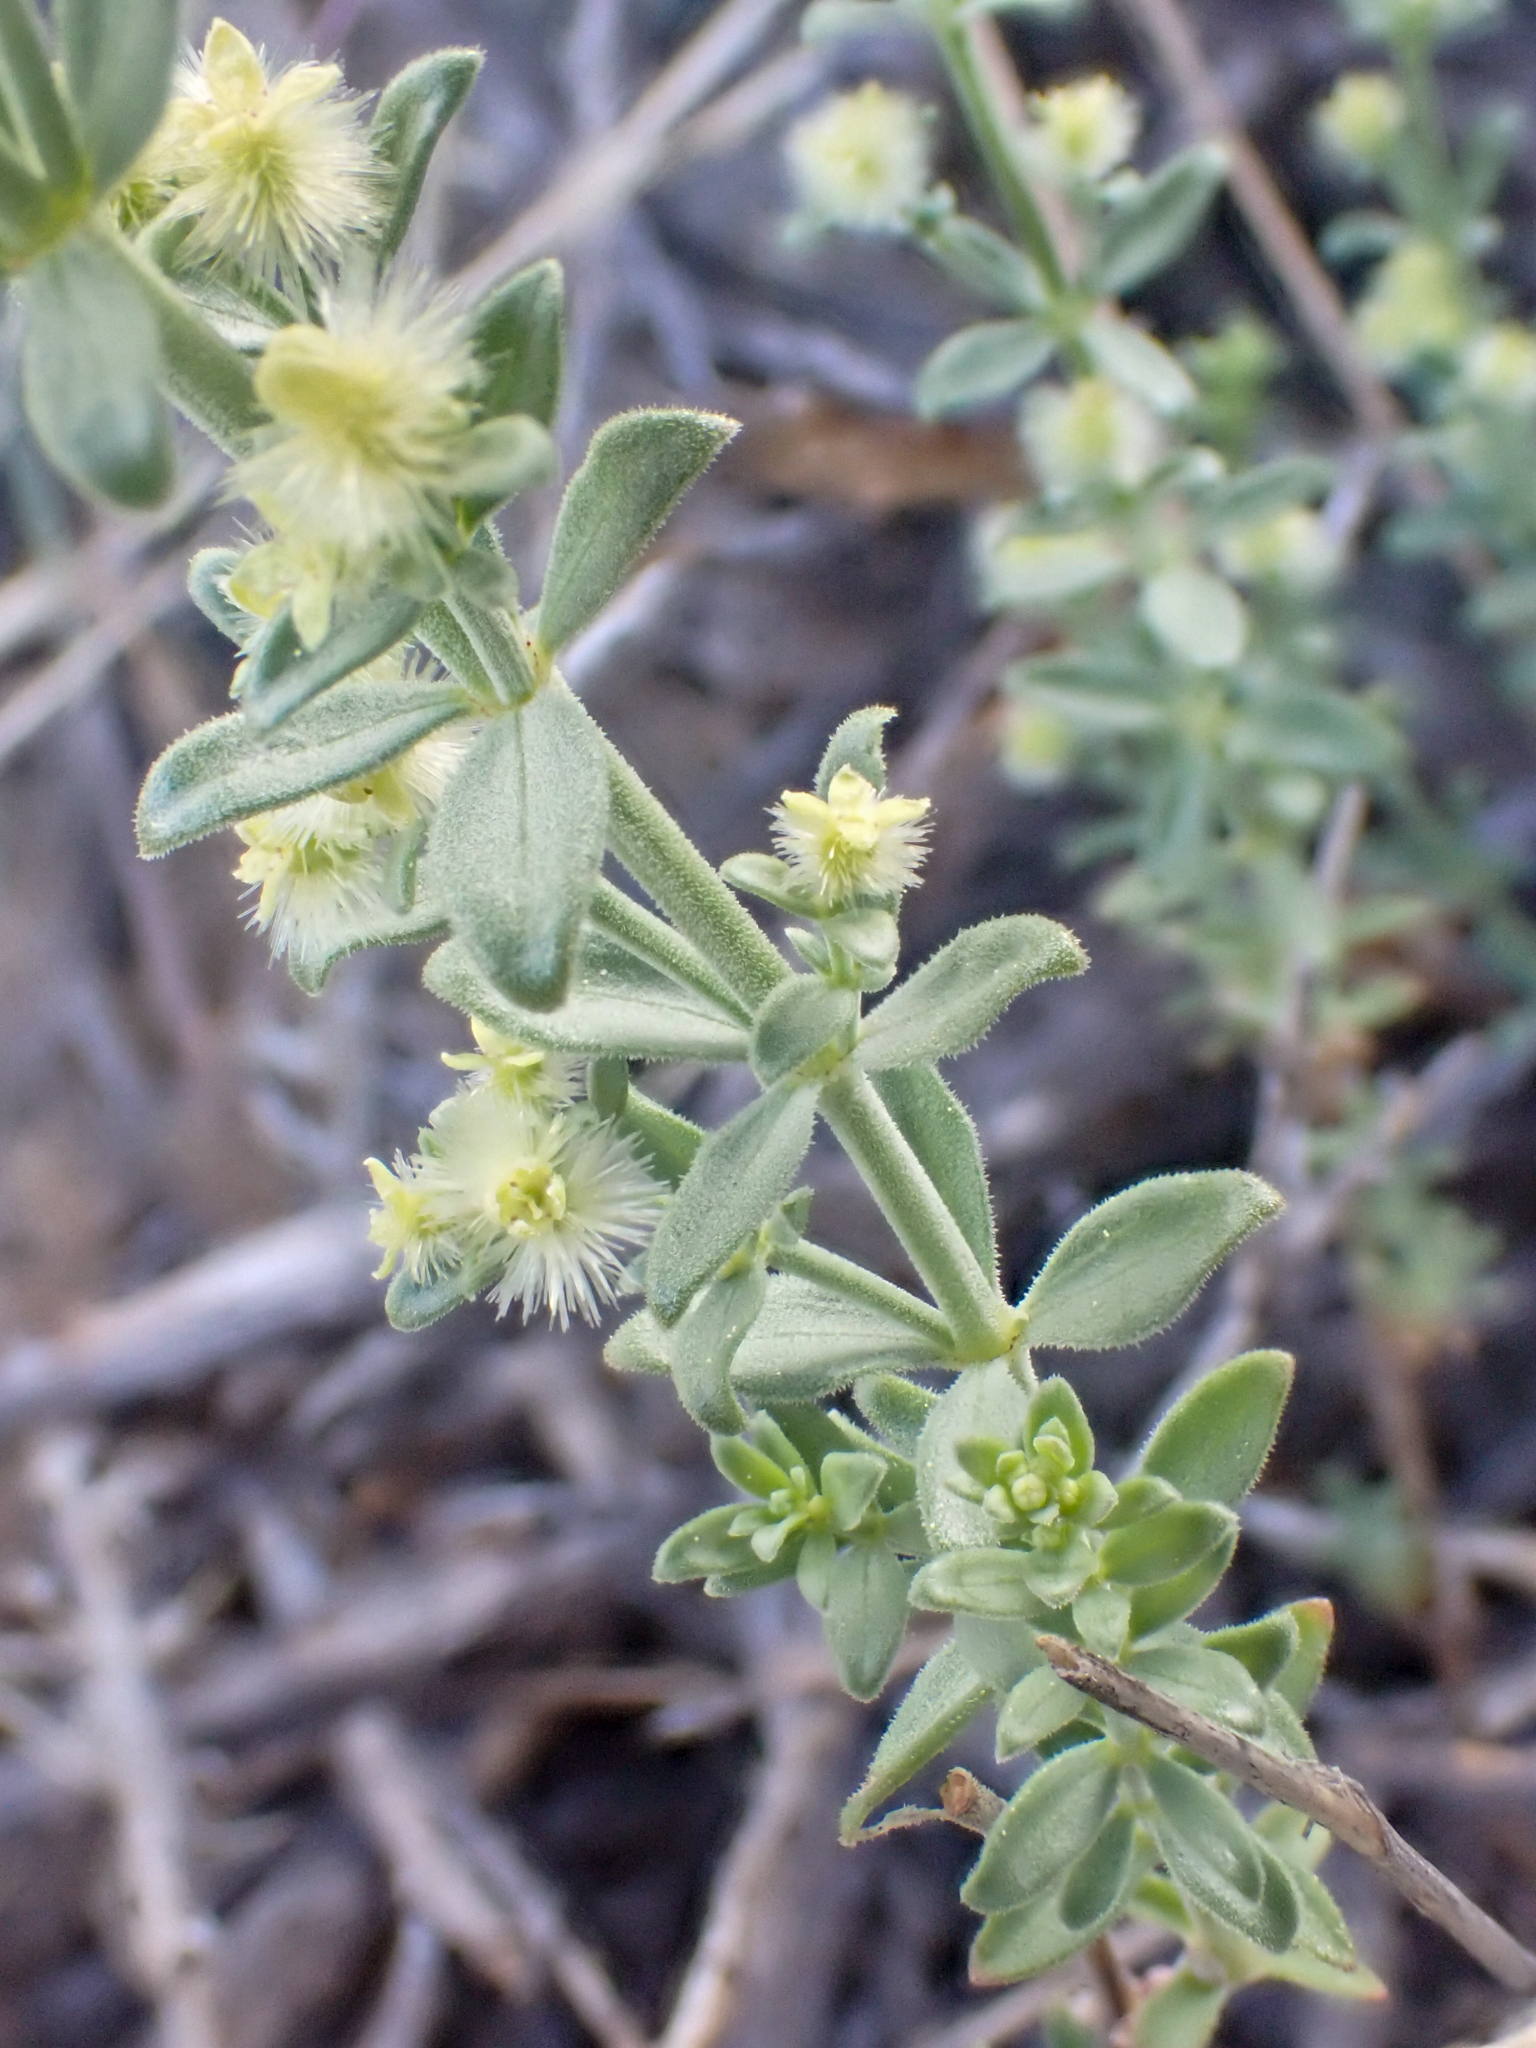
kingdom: Plantae
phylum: Tracheophyta
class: Magnoliopsida
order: Gentianales
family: Rubiaceae
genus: Galium
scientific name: Galium grayanum
